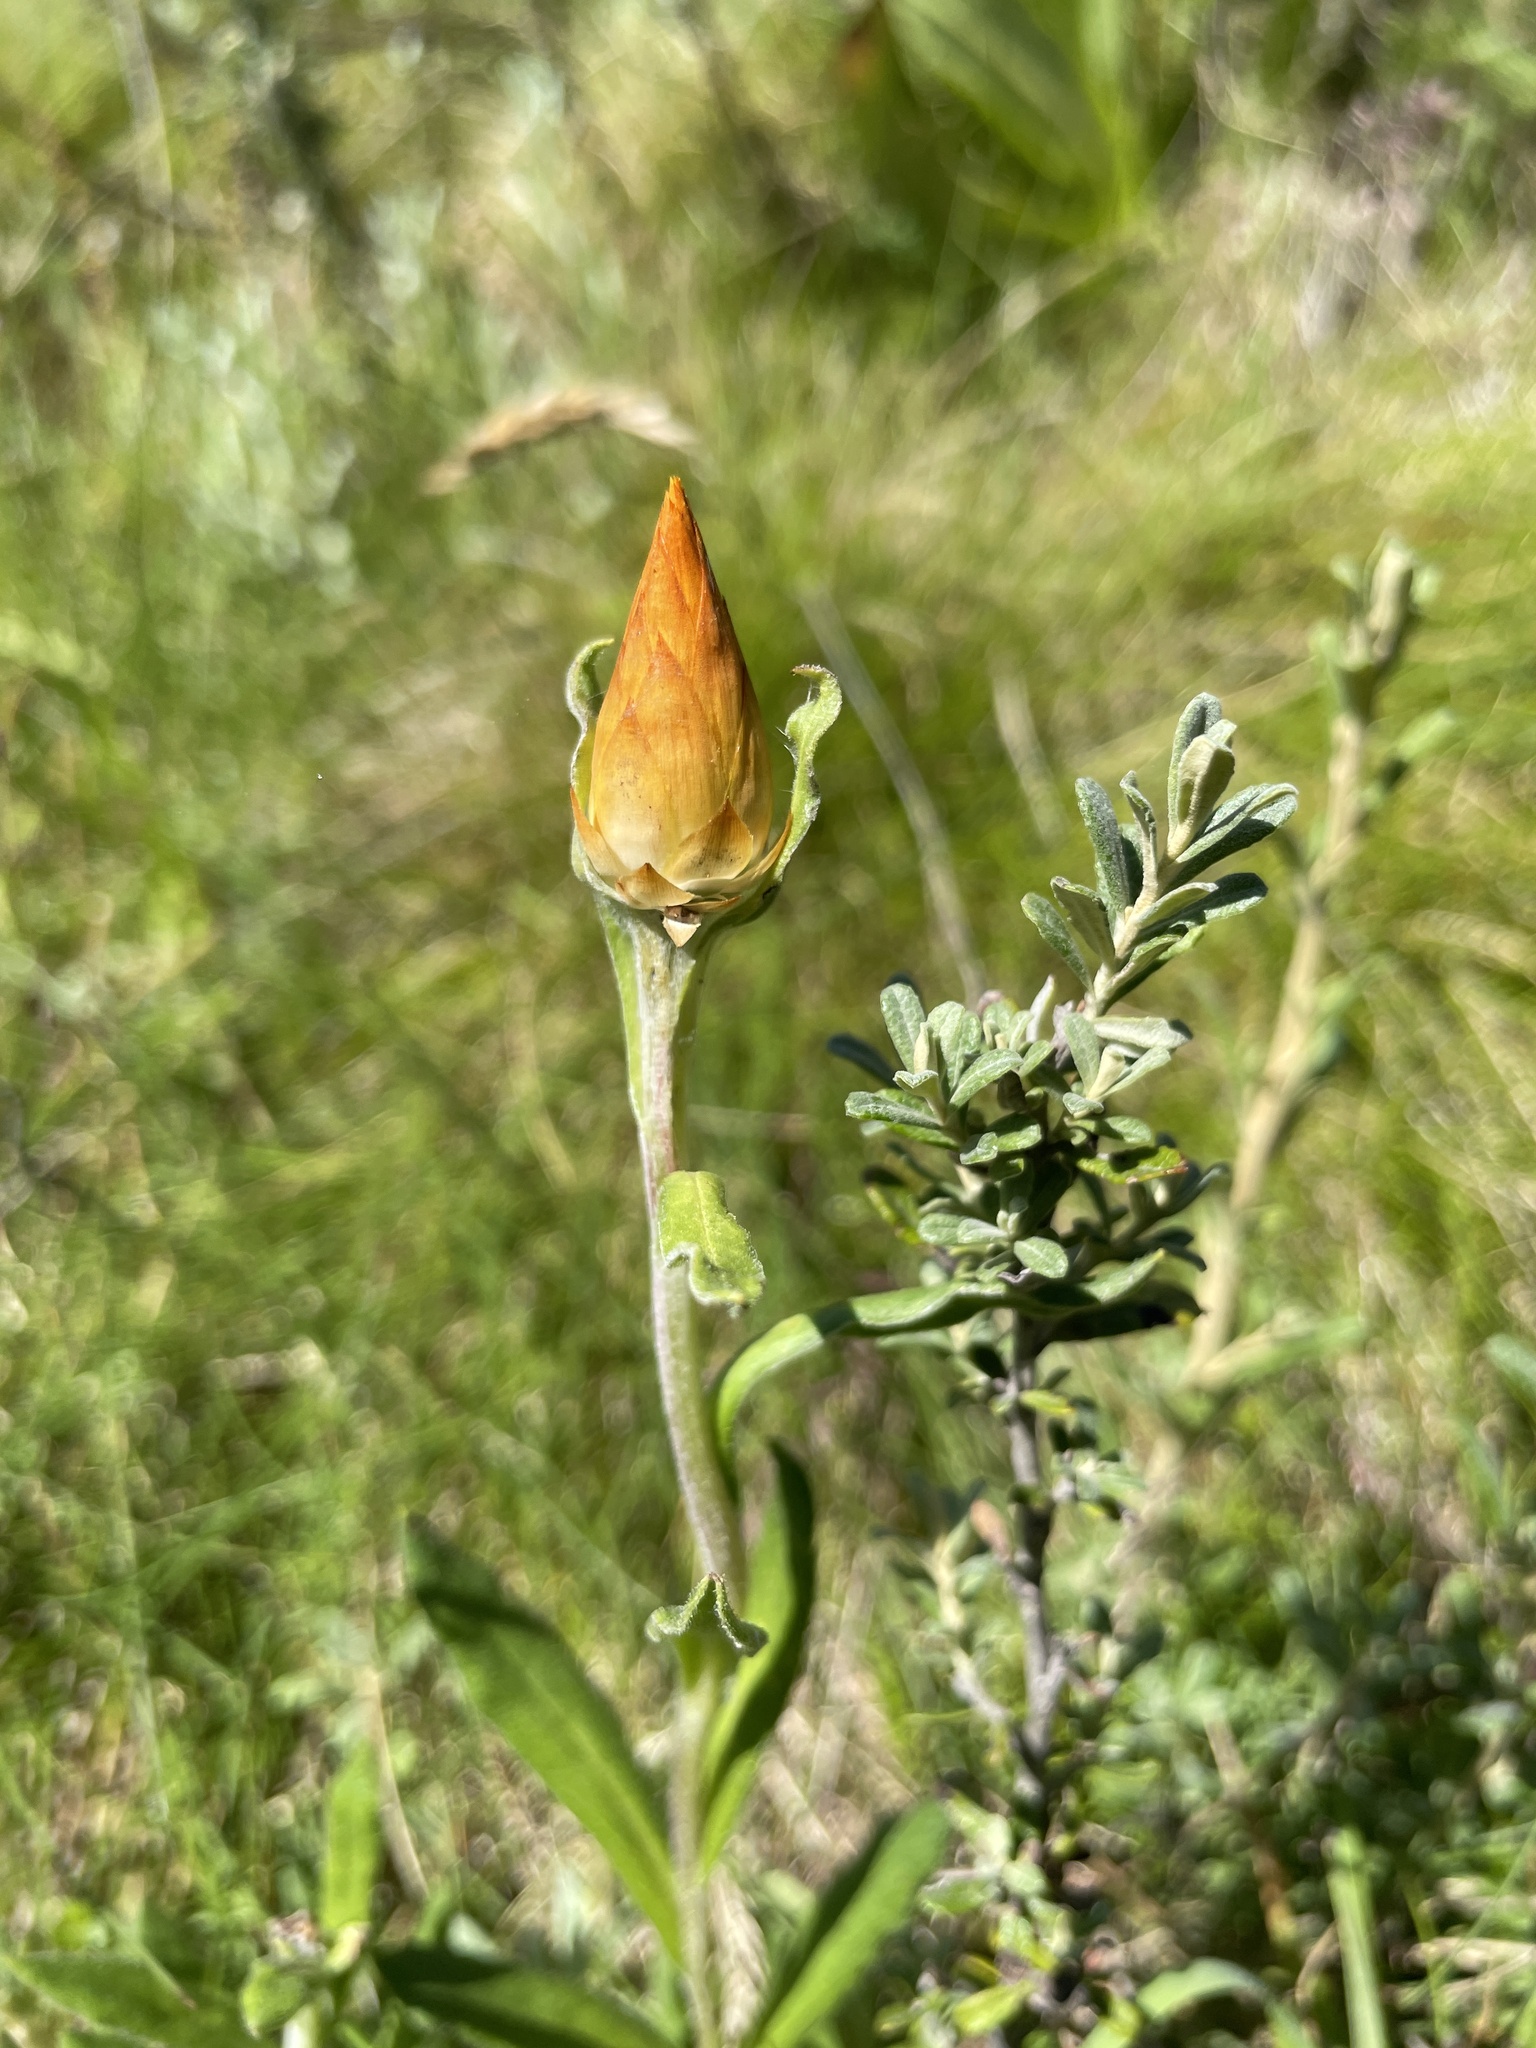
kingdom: Plantae
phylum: Tracheophyta
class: Magnoliopsida
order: Asterales
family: Asteraceae
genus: Xerochrysum
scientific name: Xerochrysum subundulatum
